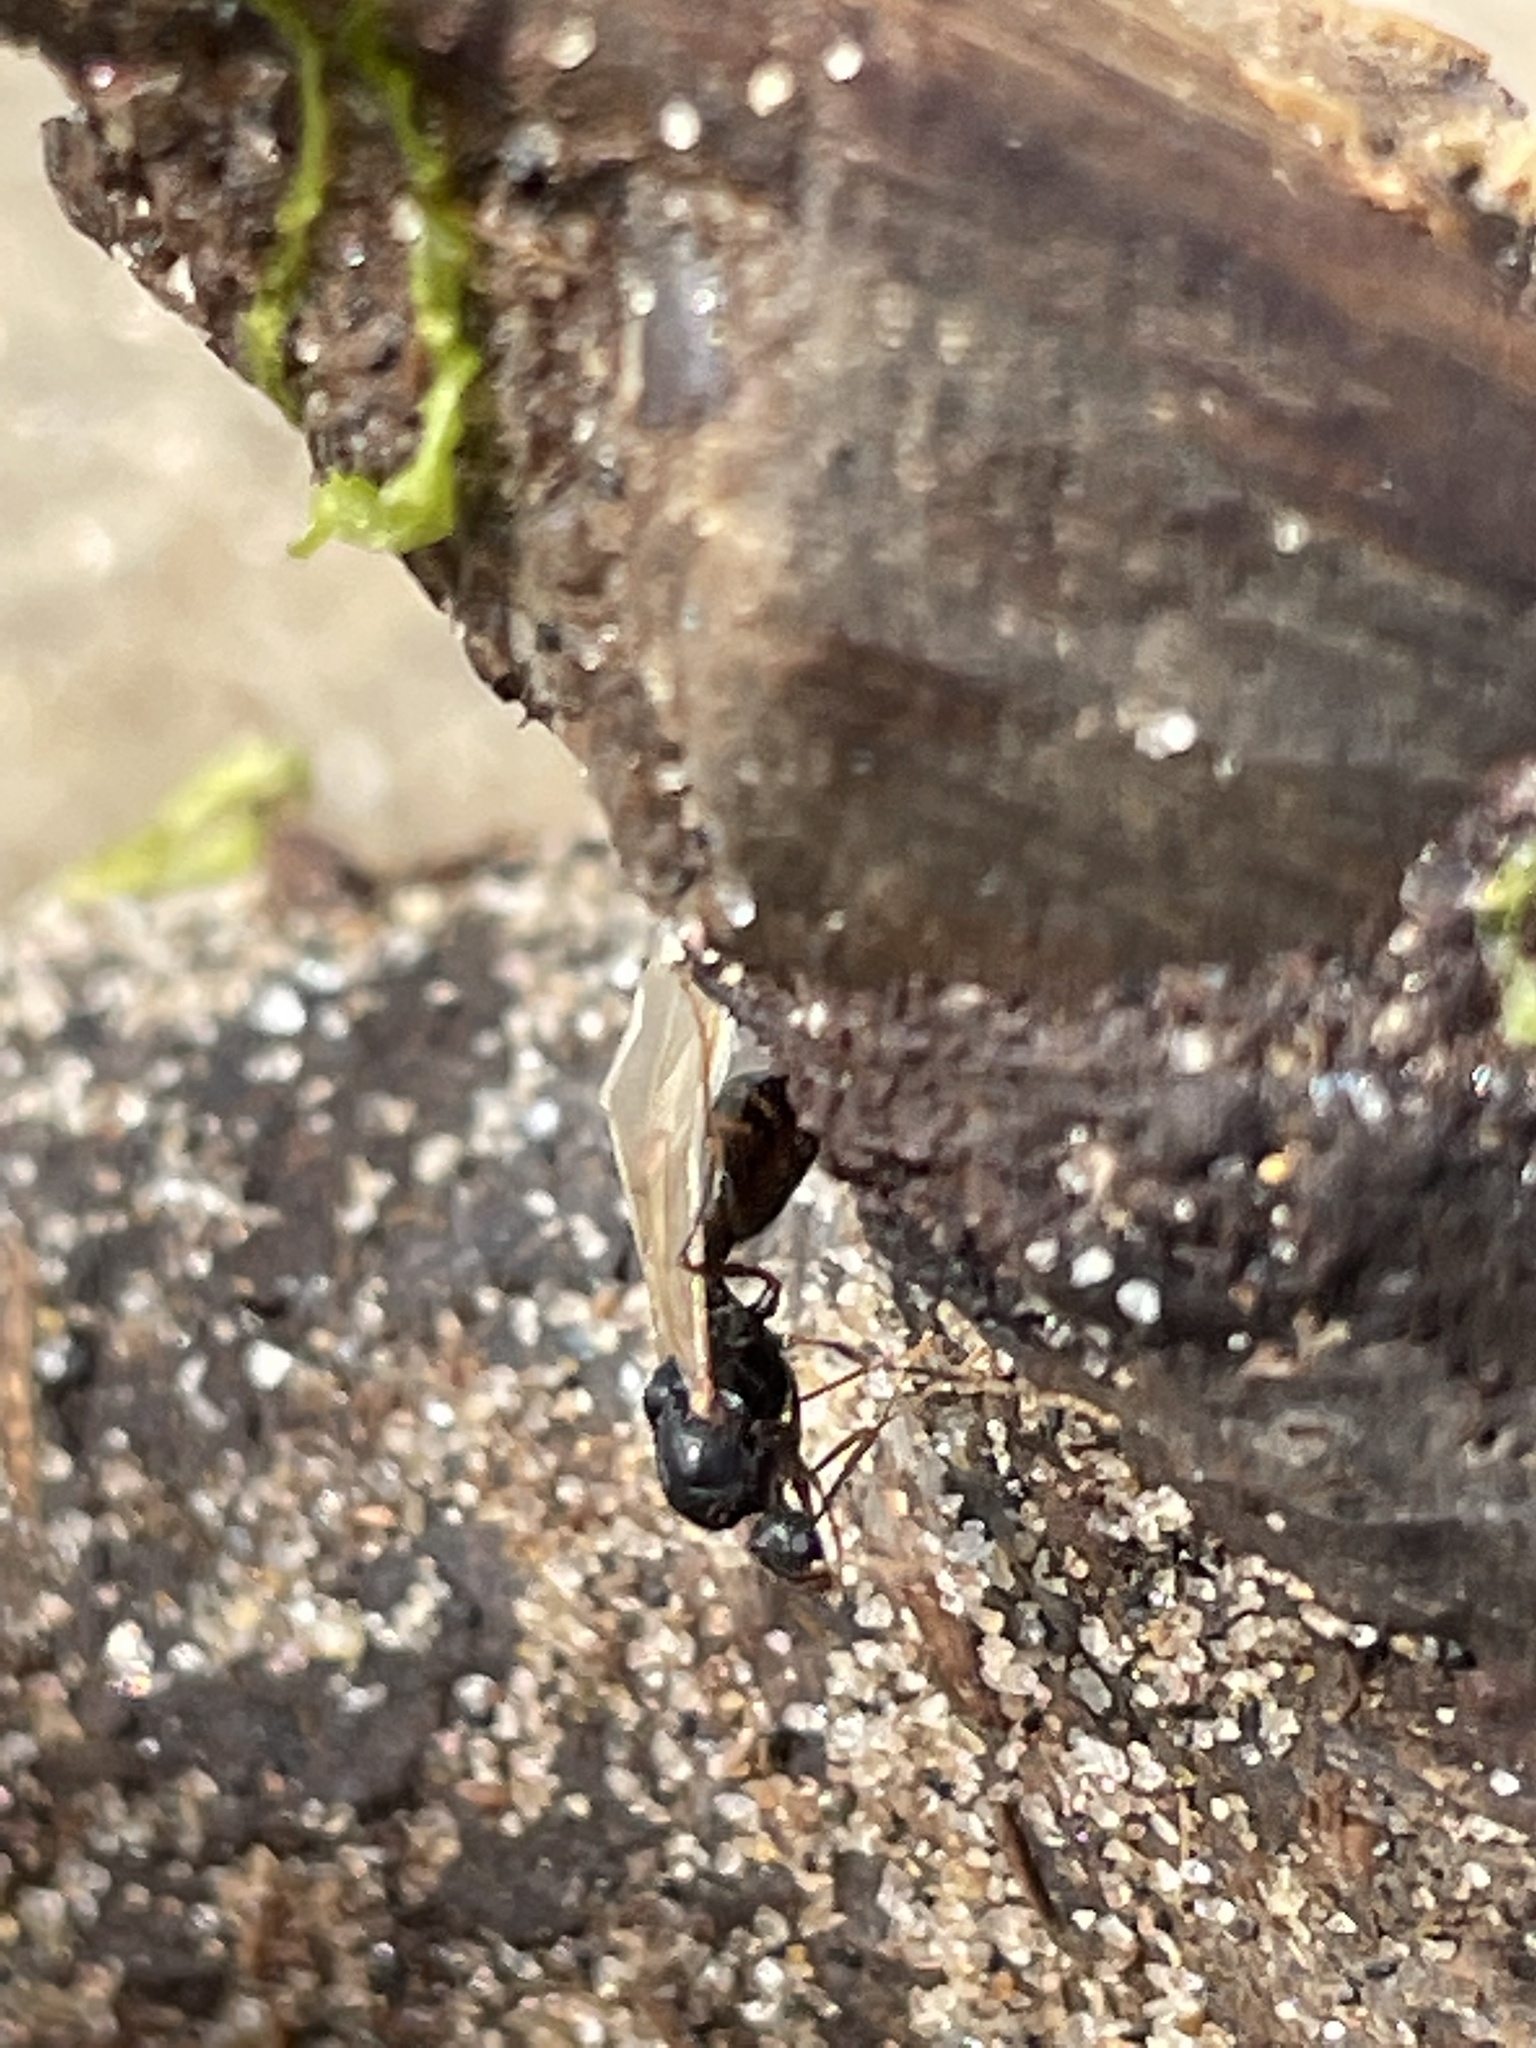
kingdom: Animalia
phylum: Arthropoda
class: Insecta
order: Hymenoptera
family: Formicidae
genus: Tetramorium
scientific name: Tetramorium immigrans
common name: Pavement ant
